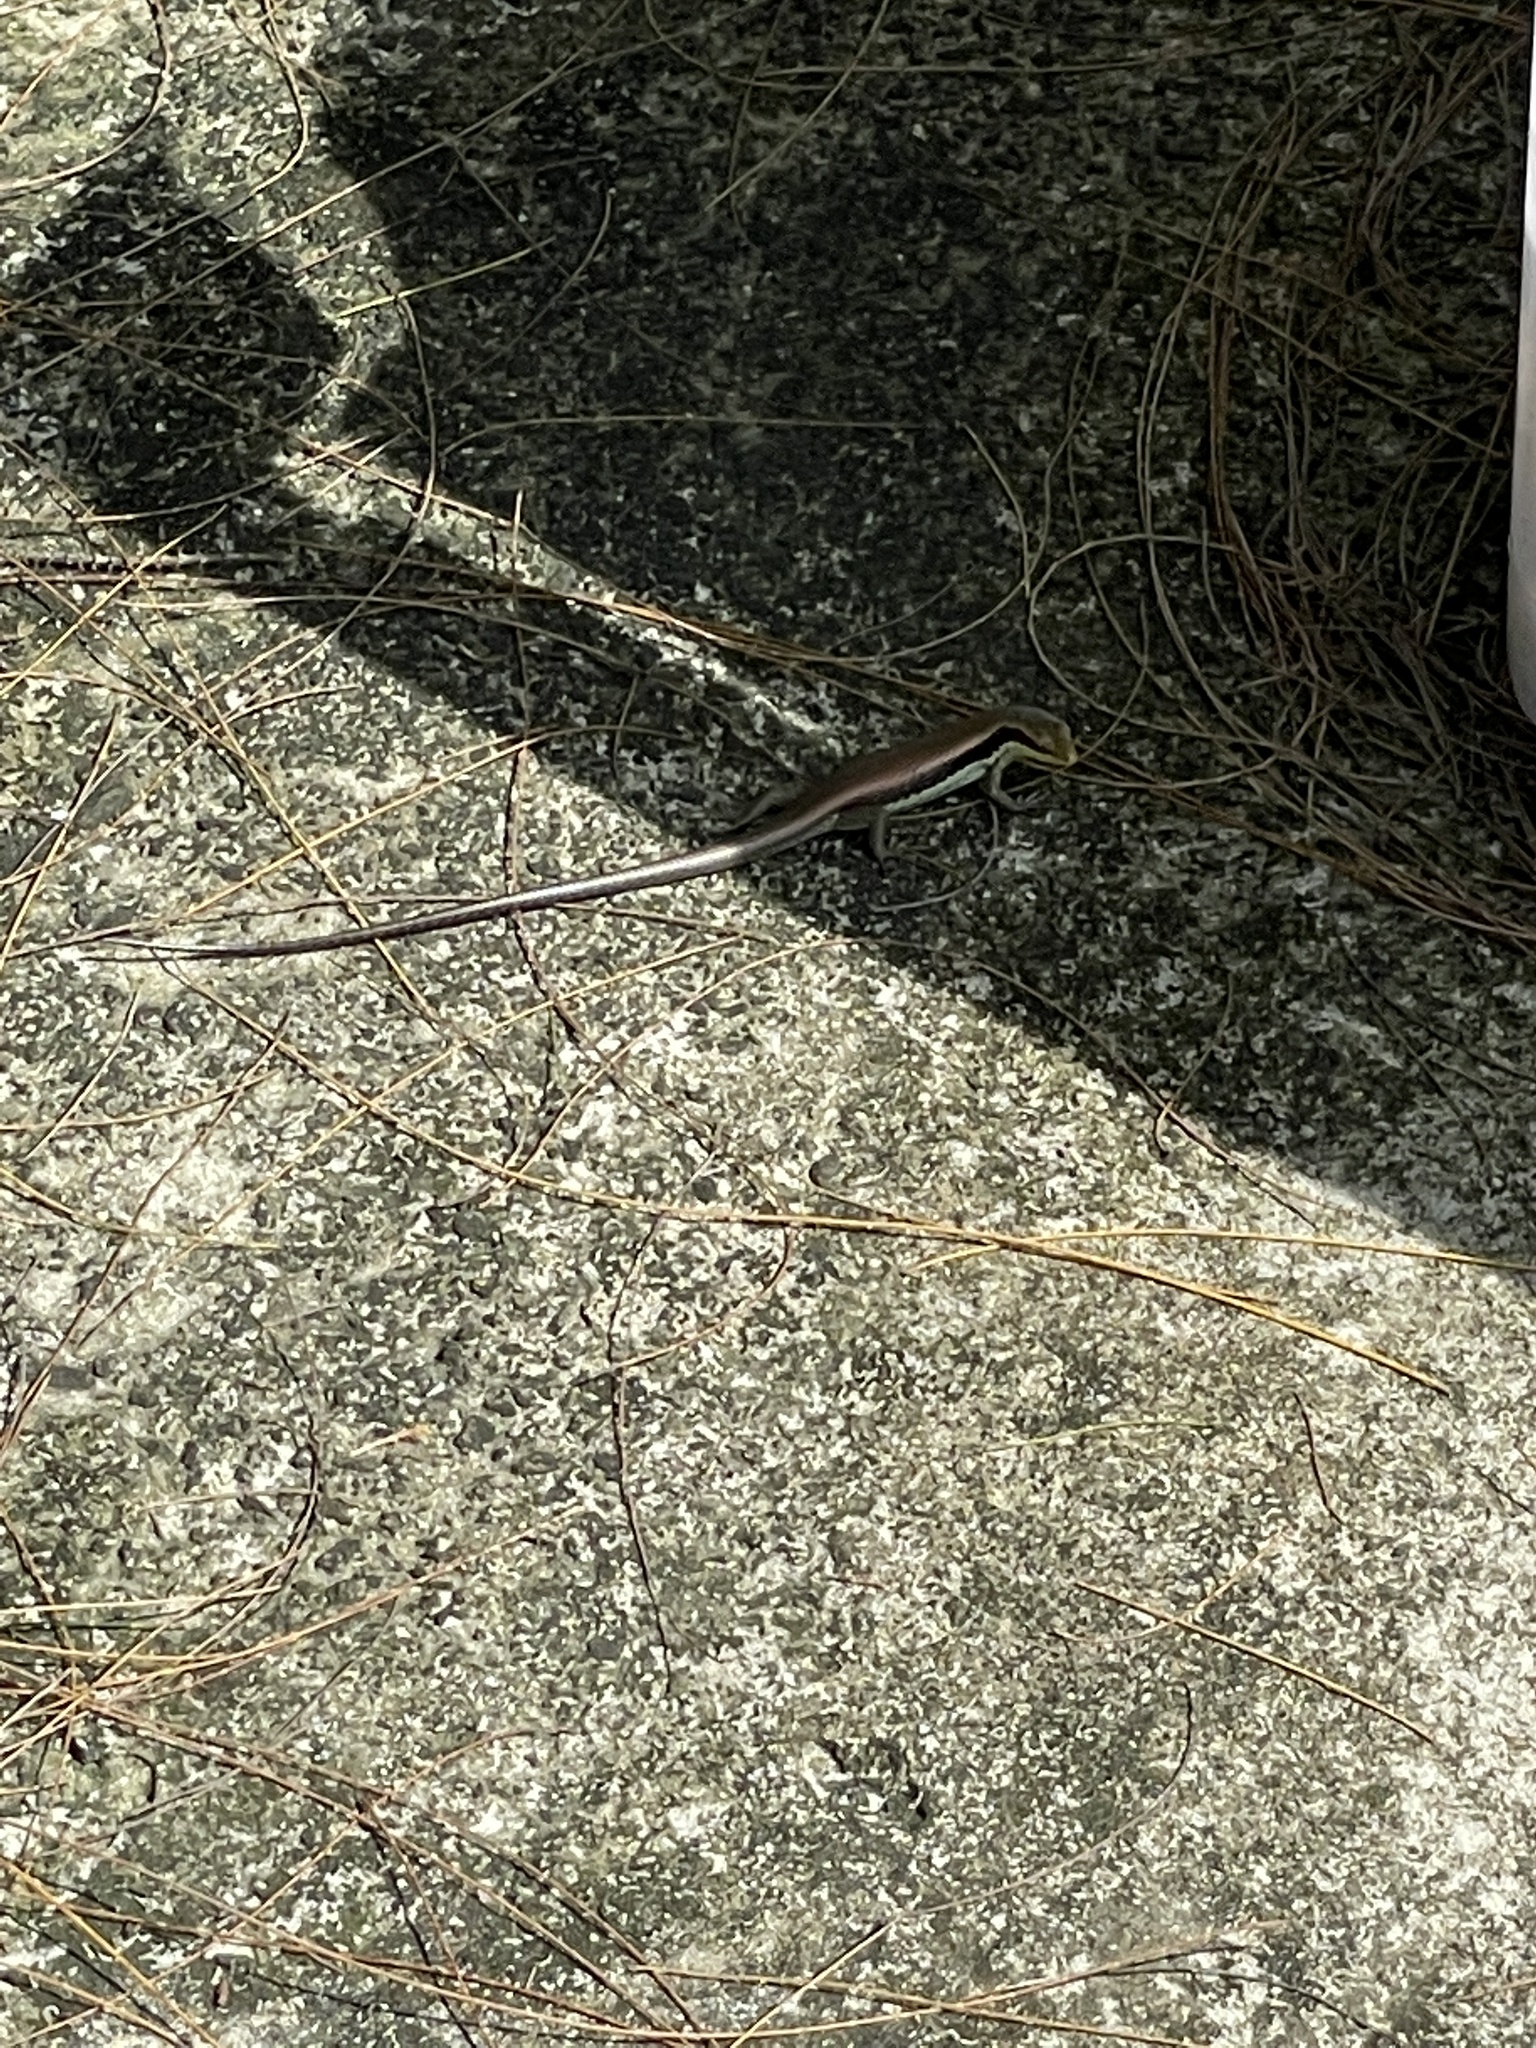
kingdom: Animalia
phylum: Chordata
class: Squamata
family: Scincidae
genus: Eutropis
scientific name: Eutropis longicaudata
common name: Long-tailed sun skink
